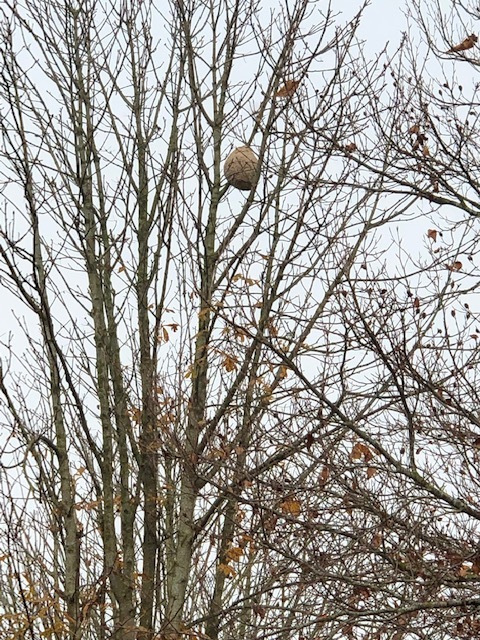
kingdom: Animalia
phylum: Arthropoda
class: Insecta
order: Hymenoptera
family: Vespidae
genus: Vespa
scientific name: Vespa velutina
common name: Asian hornet
